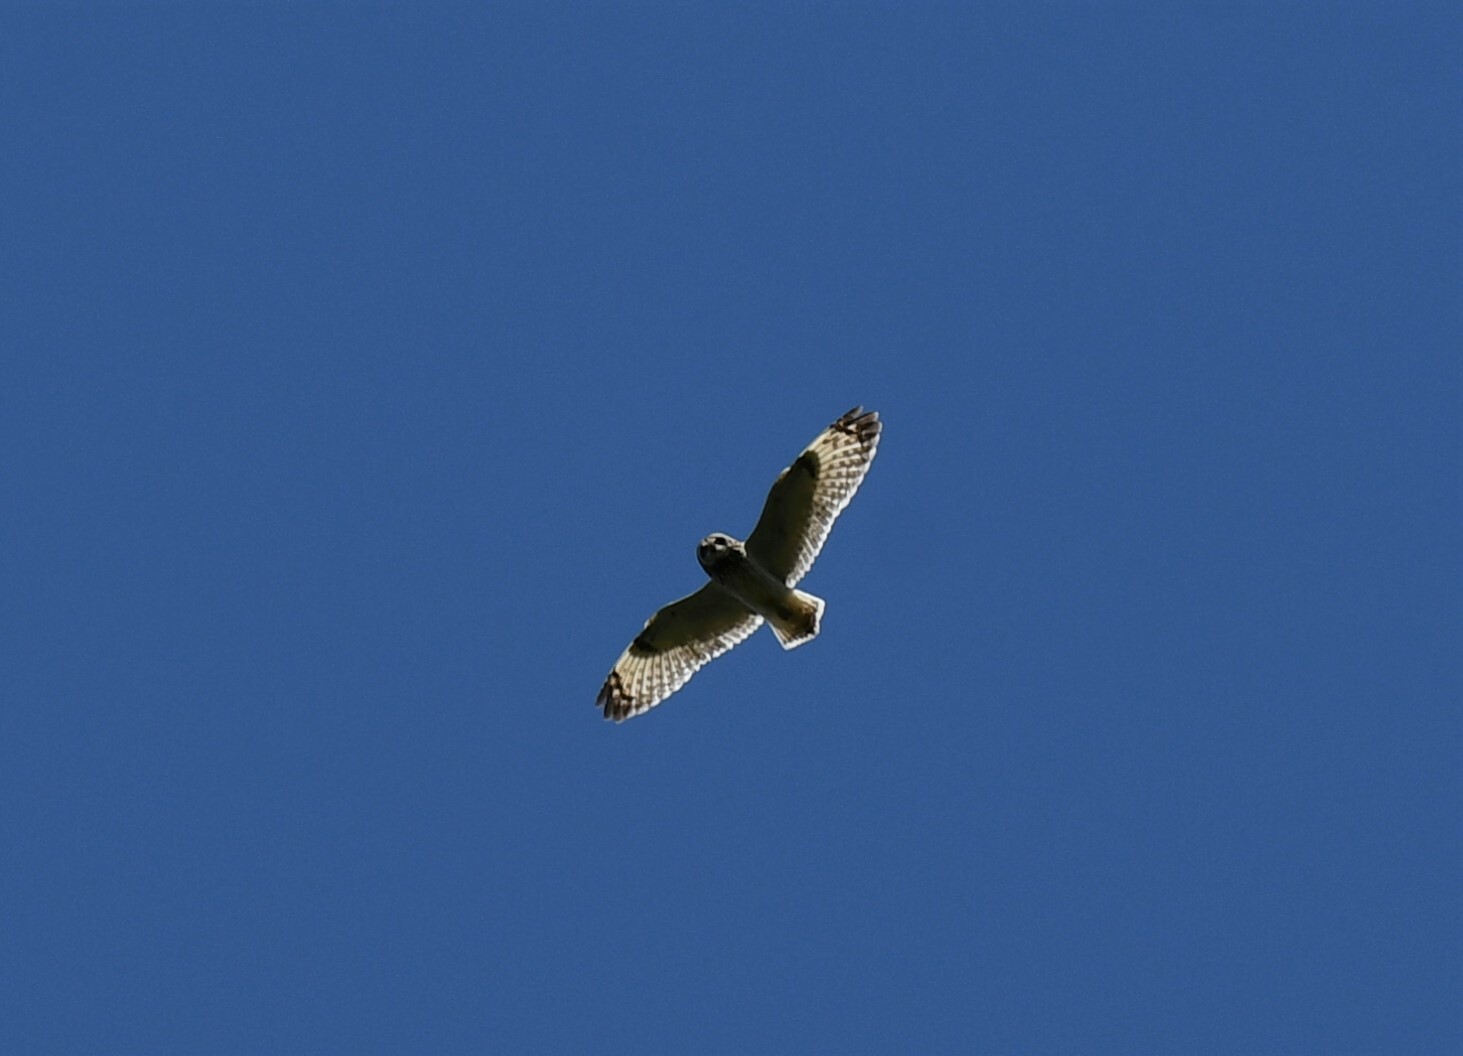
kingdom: Animalia
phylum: Chordata
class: Aves
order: Strigiformes
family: Strigidae
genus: Asio
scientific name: Asio flammeus
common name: Short-eared owl
